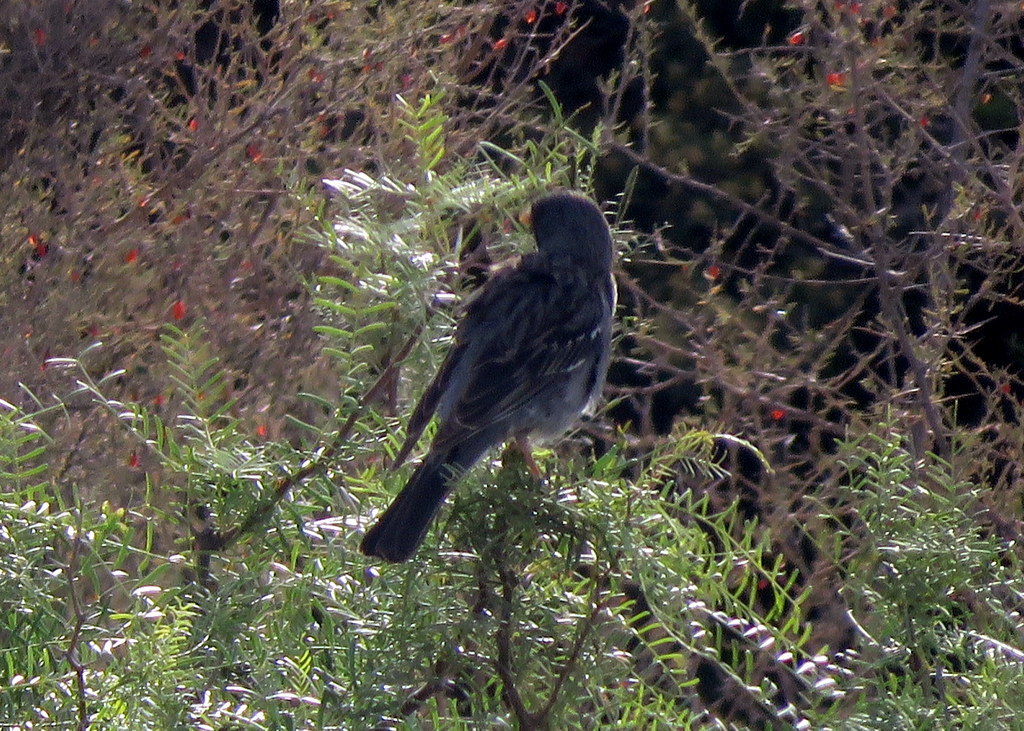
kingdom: Animalia
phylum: Chordata
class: Aves
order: Passeriformes
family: Thraupidae
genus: Rhopospina
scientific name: Rhopospina fruticeti
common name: Mourning sierra finch
